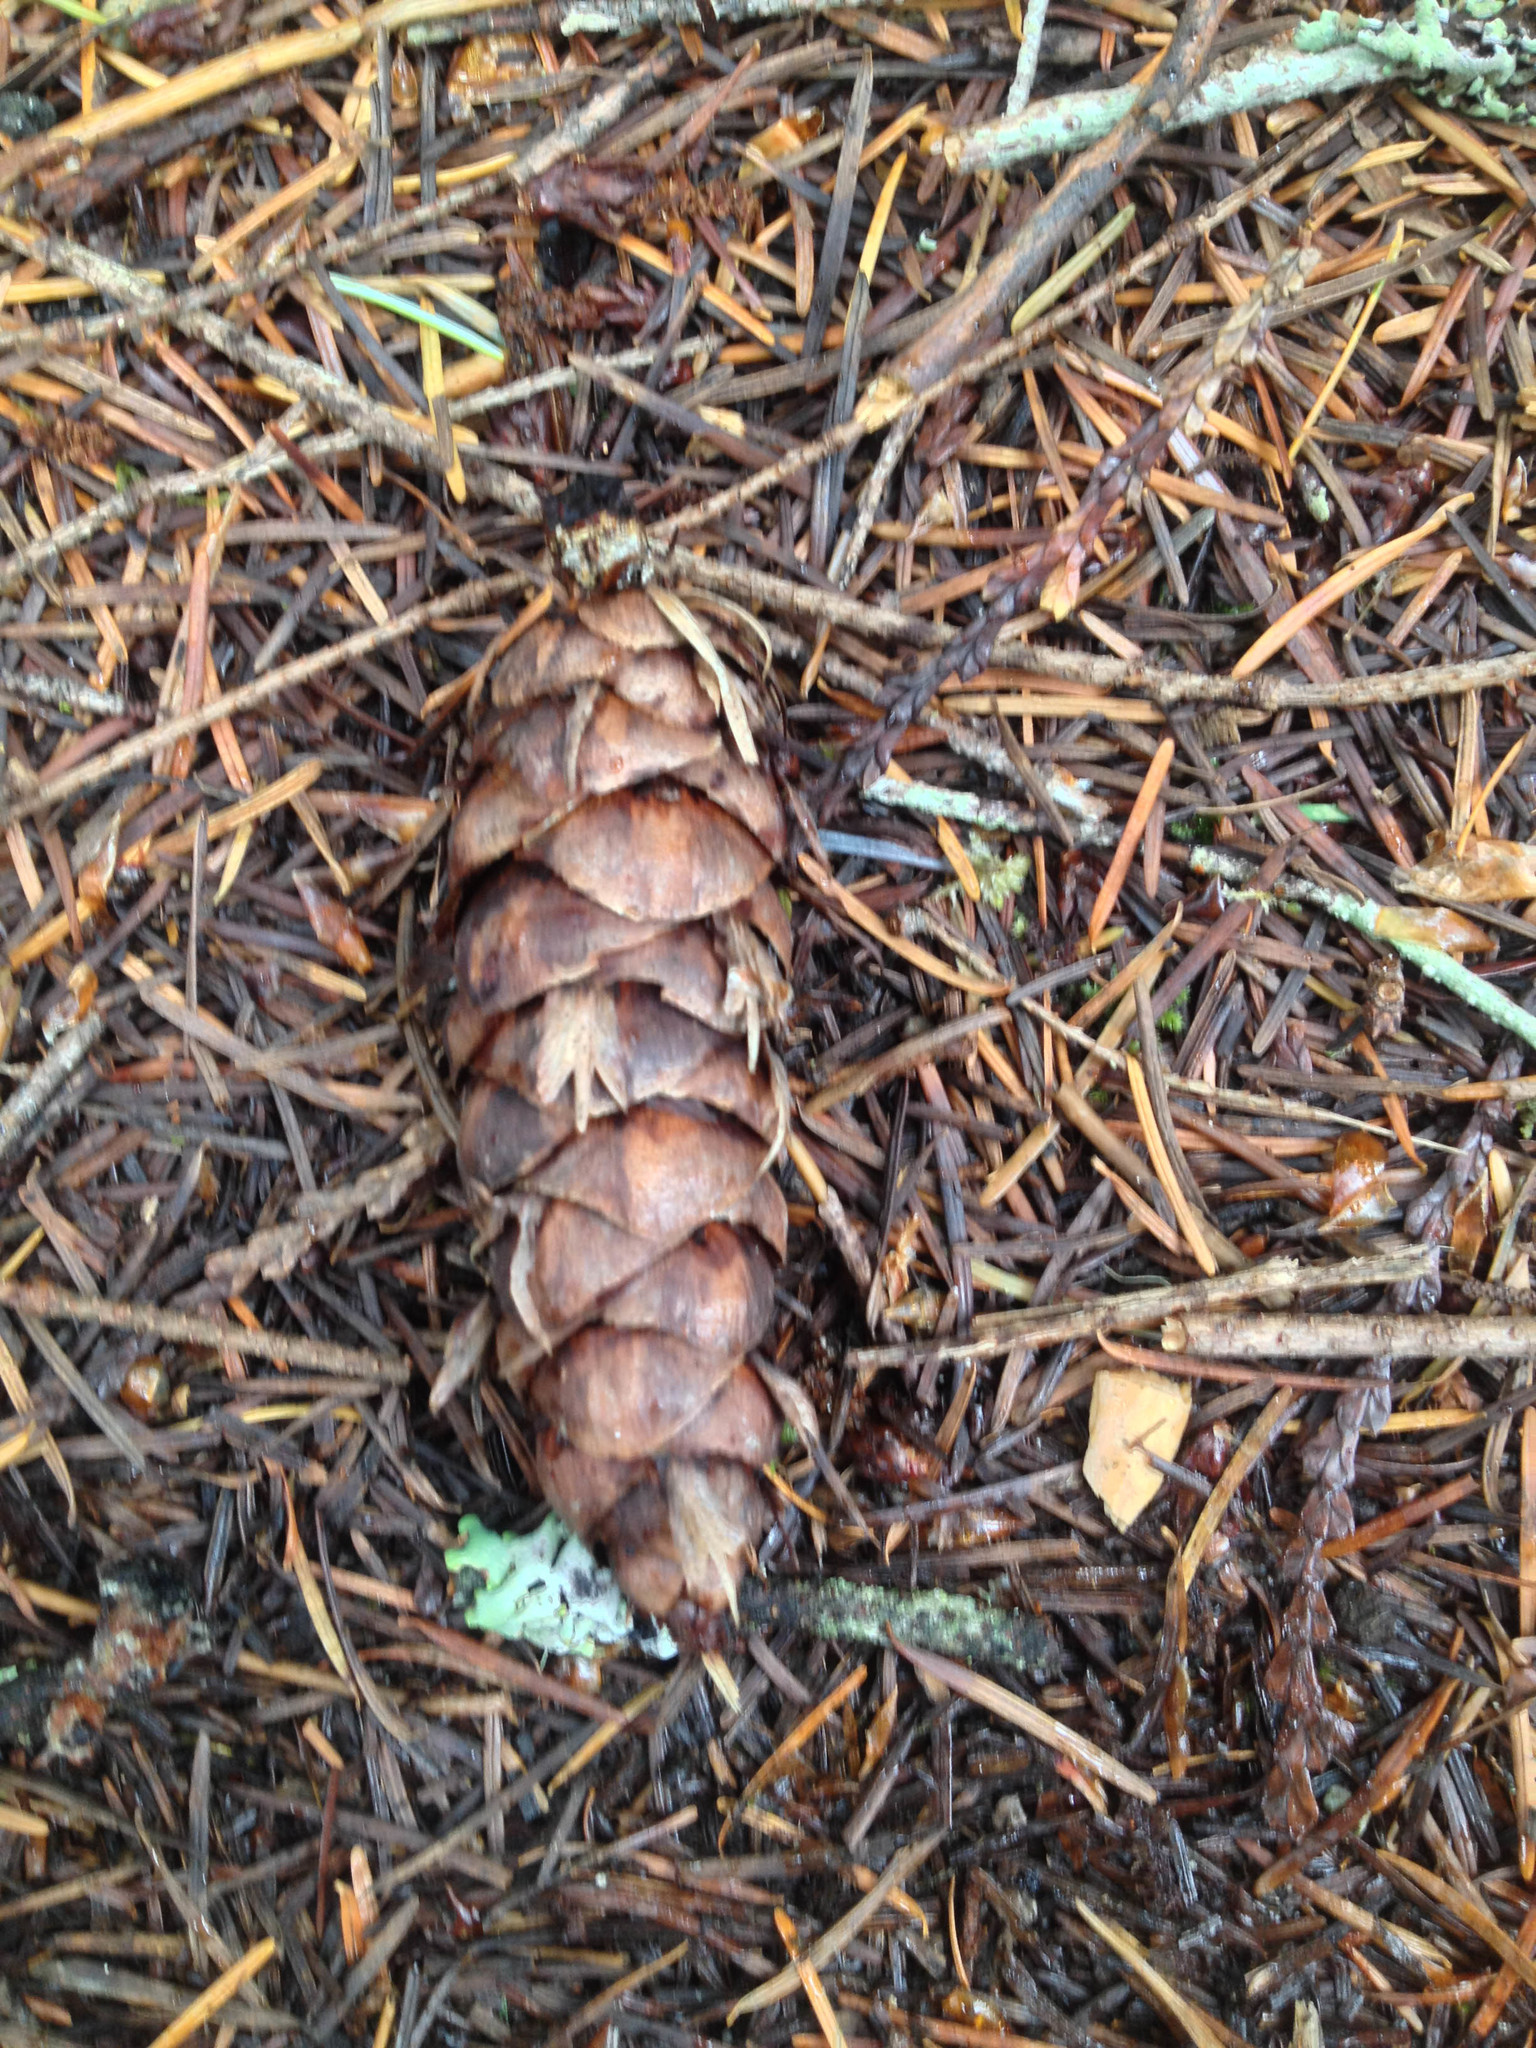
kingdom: Plantae
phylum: Tracheophyta
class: Pinopsida
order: Pinales
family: Pinaceae
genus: Pseudotsuga
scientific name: Pseudotsuga menziesii
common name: Douglas fir
